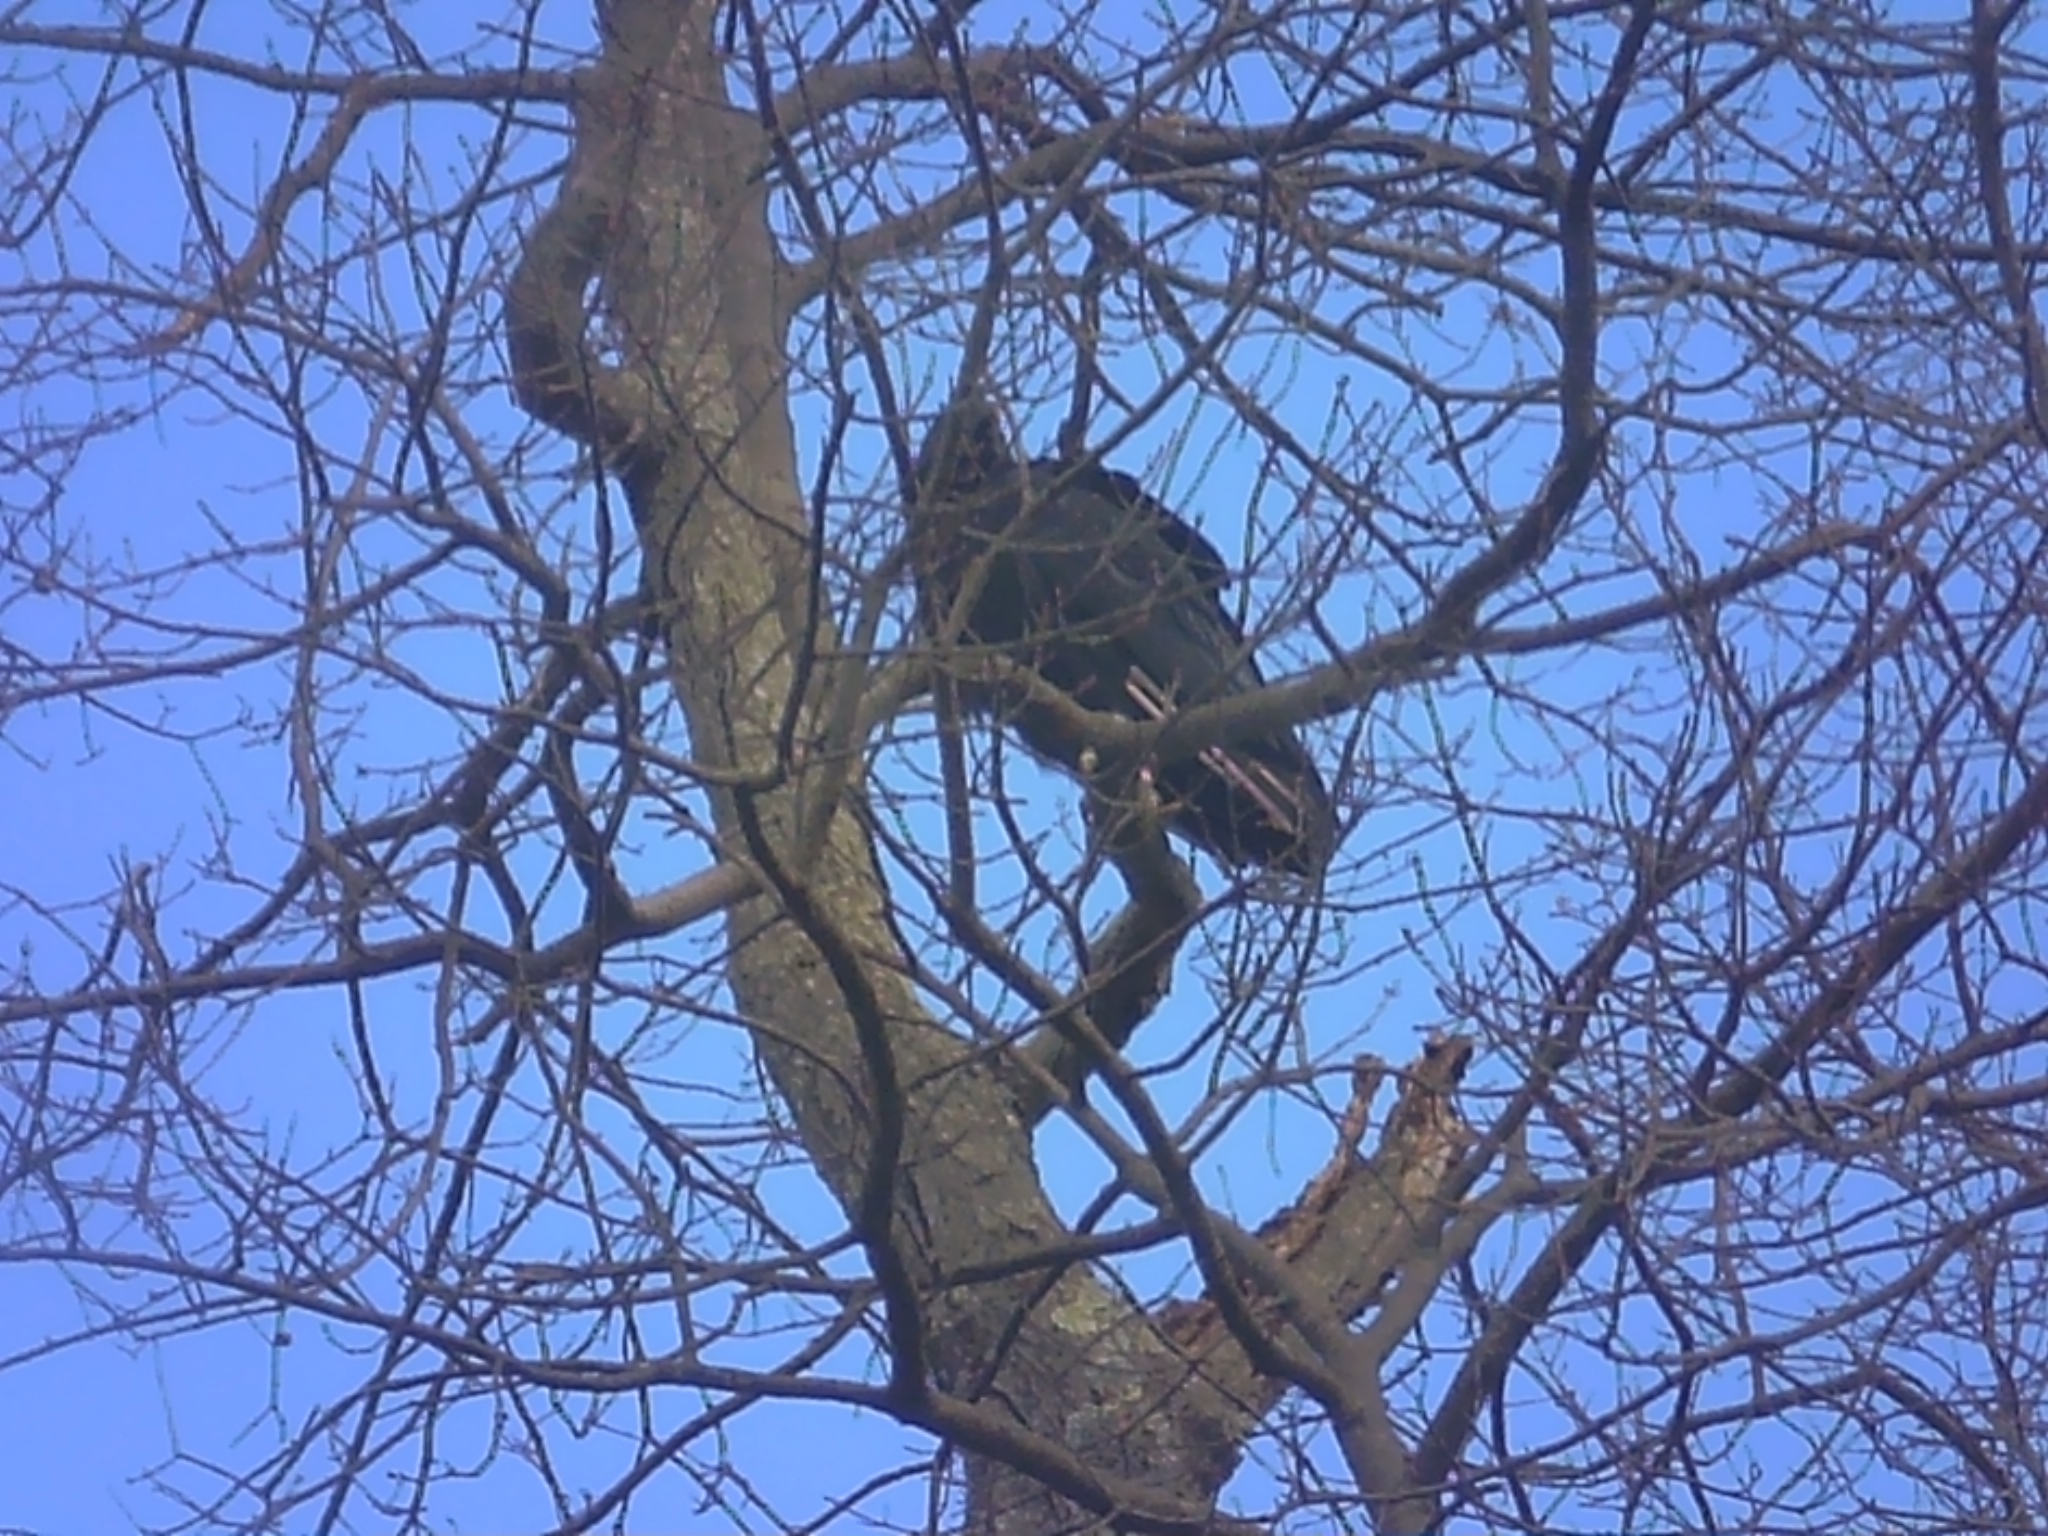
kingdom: Animalia
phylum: Chordata
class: Aves
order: Accipitriformes
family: Cathartidae
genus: Coragyps
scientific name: Coragyps atratus
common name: Black vulture
